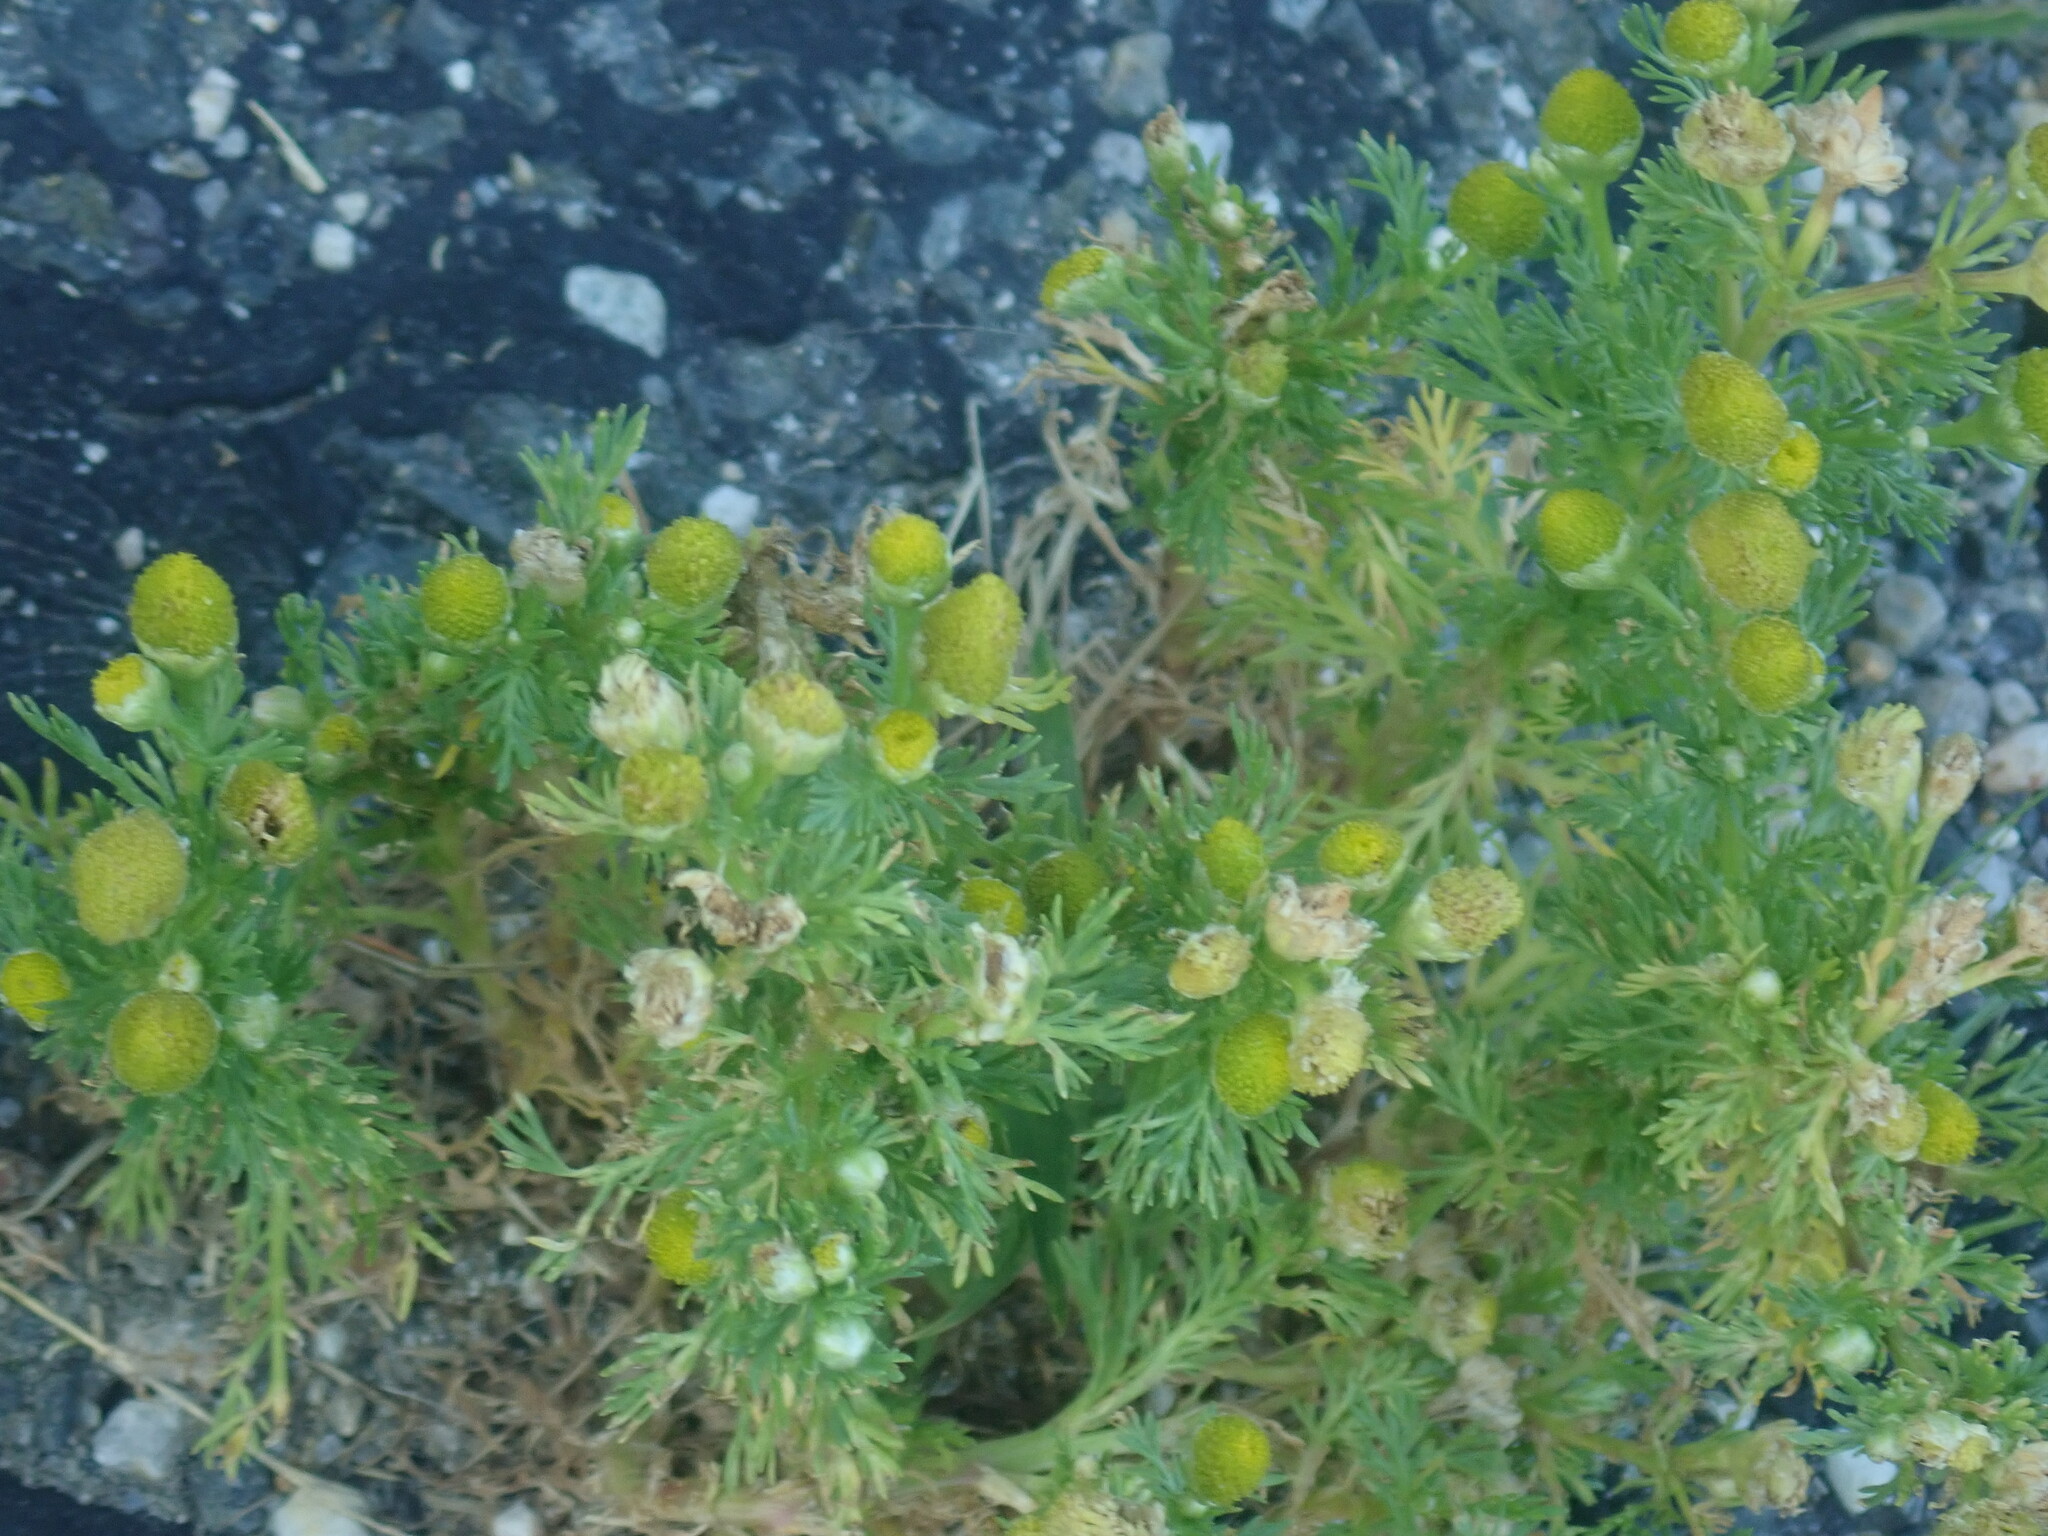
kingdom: Plantae
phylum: Tracheophyta
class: Magnoliopsida
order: Asterales
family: Asteraceae
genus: Matricaria
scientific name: Matricaria discoidea
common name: Disc mayweed
